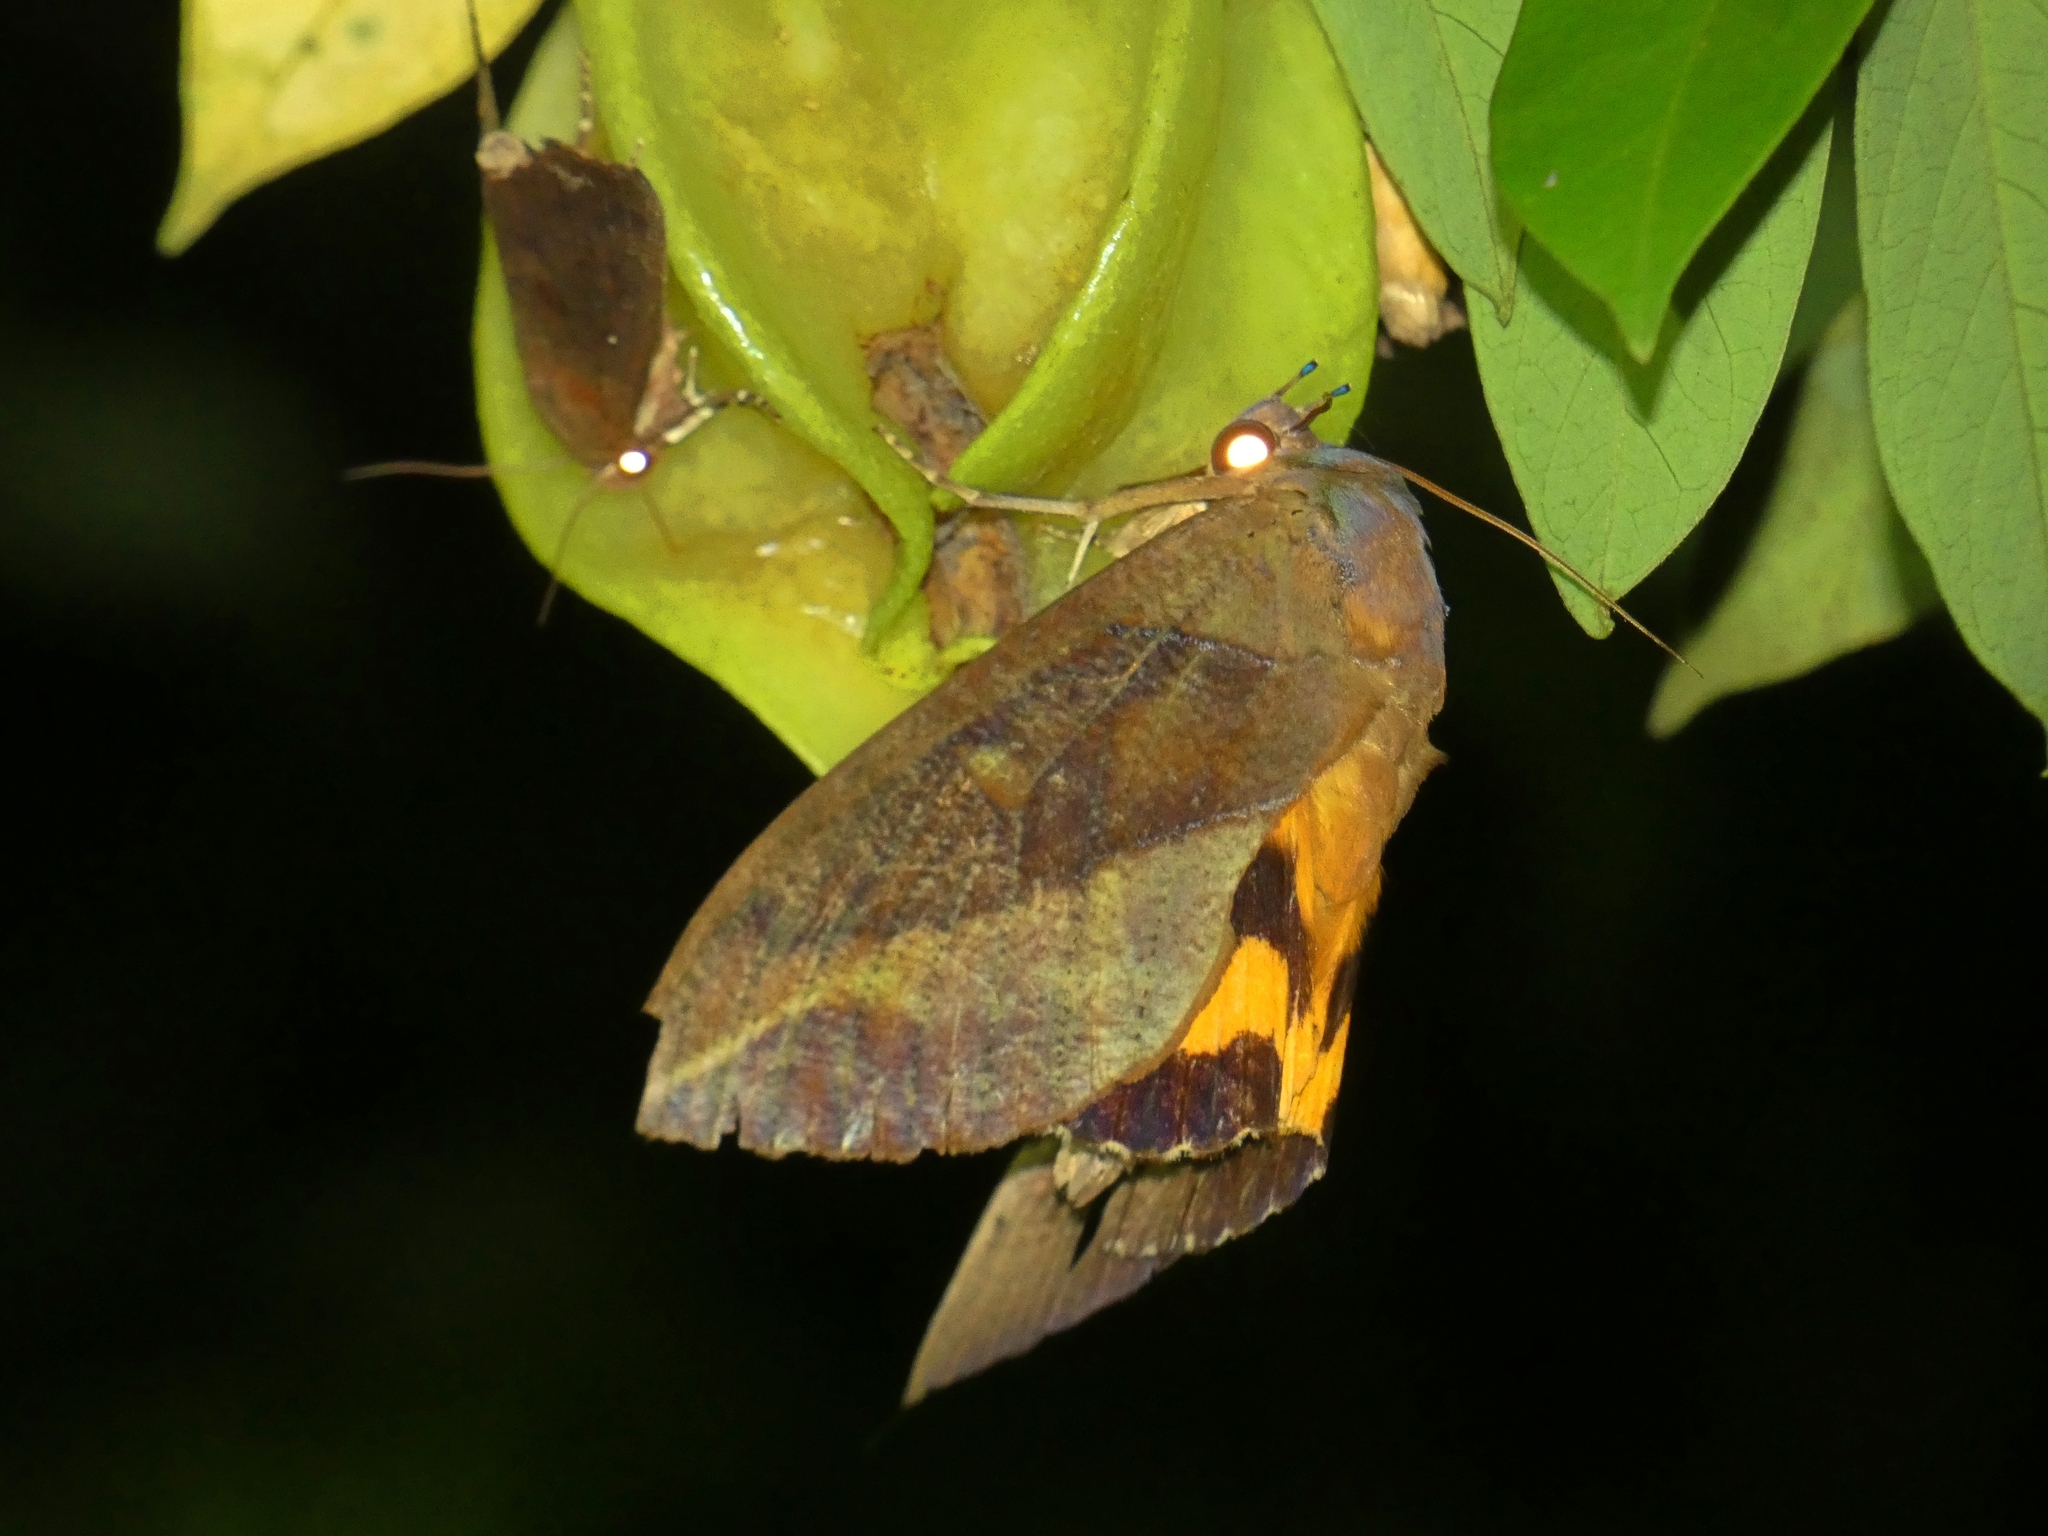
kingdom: Animalia
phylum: Arthropoda
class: Insecta
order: Lepidoptera
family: Erebidae
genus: Eudocima
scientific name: Eudocima phalonia
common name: Wasp
